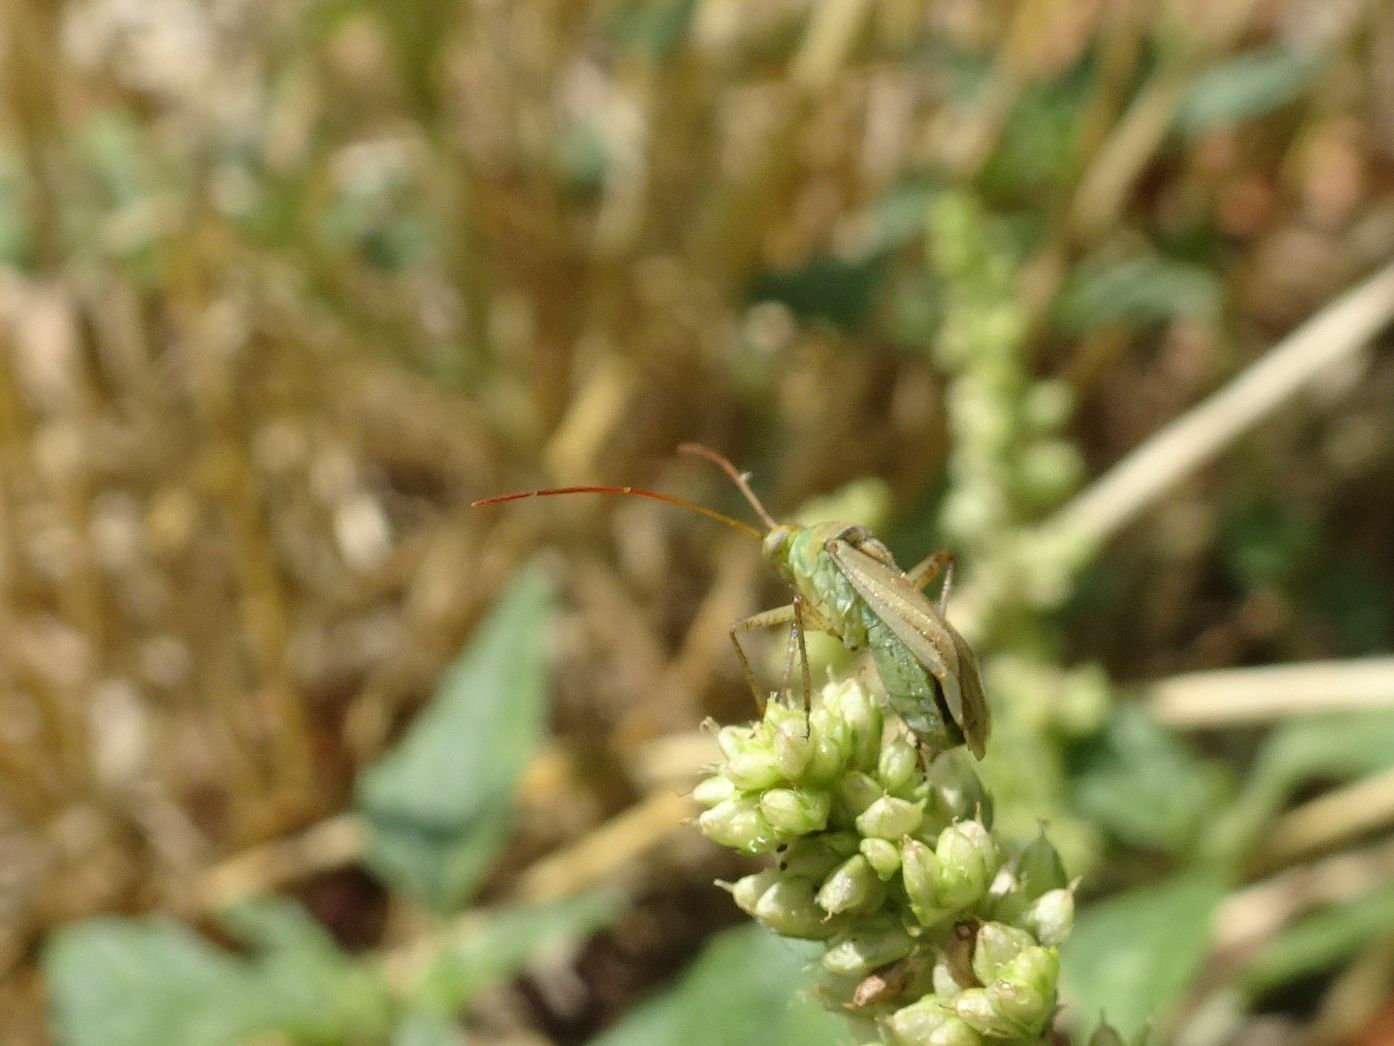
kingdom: Animalia
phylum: Arthropoda
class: Insecta
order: Hemiptera
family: Miridae
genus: Adelphocoris
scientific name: Adelphocoris lineolatus
